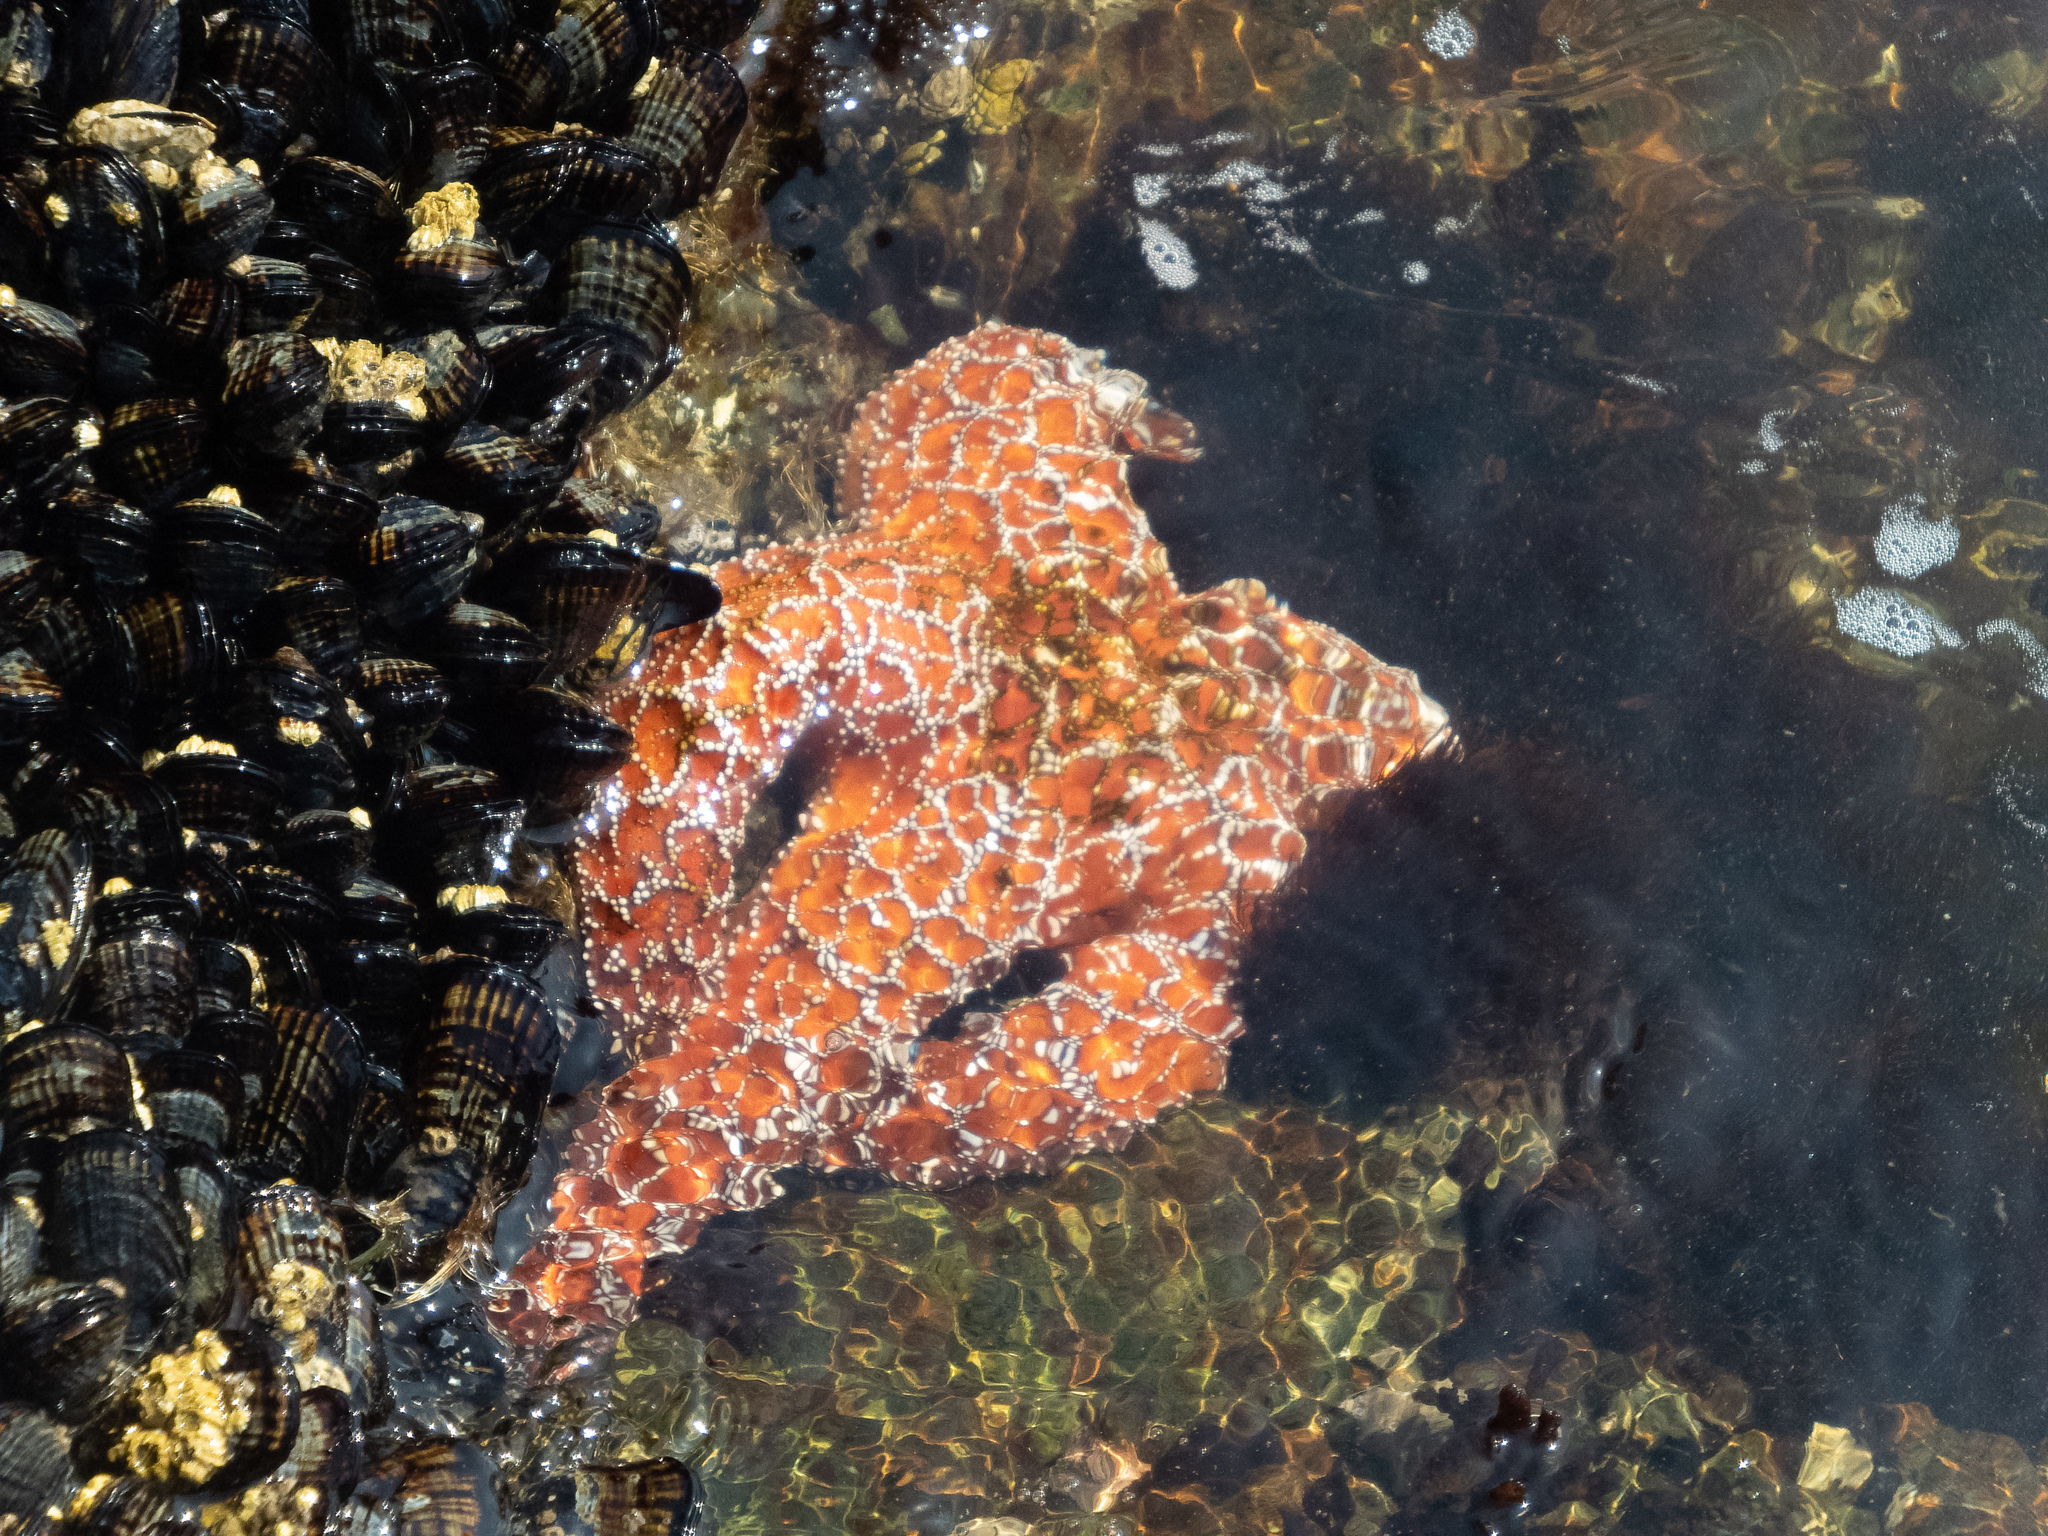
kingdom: Animalia
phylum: Echinodermata
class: Asteroidea
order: Forcipulatida
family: Asteriidae
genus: Pisaster
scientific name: Pisaster ochraceus
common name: Ochre stars
